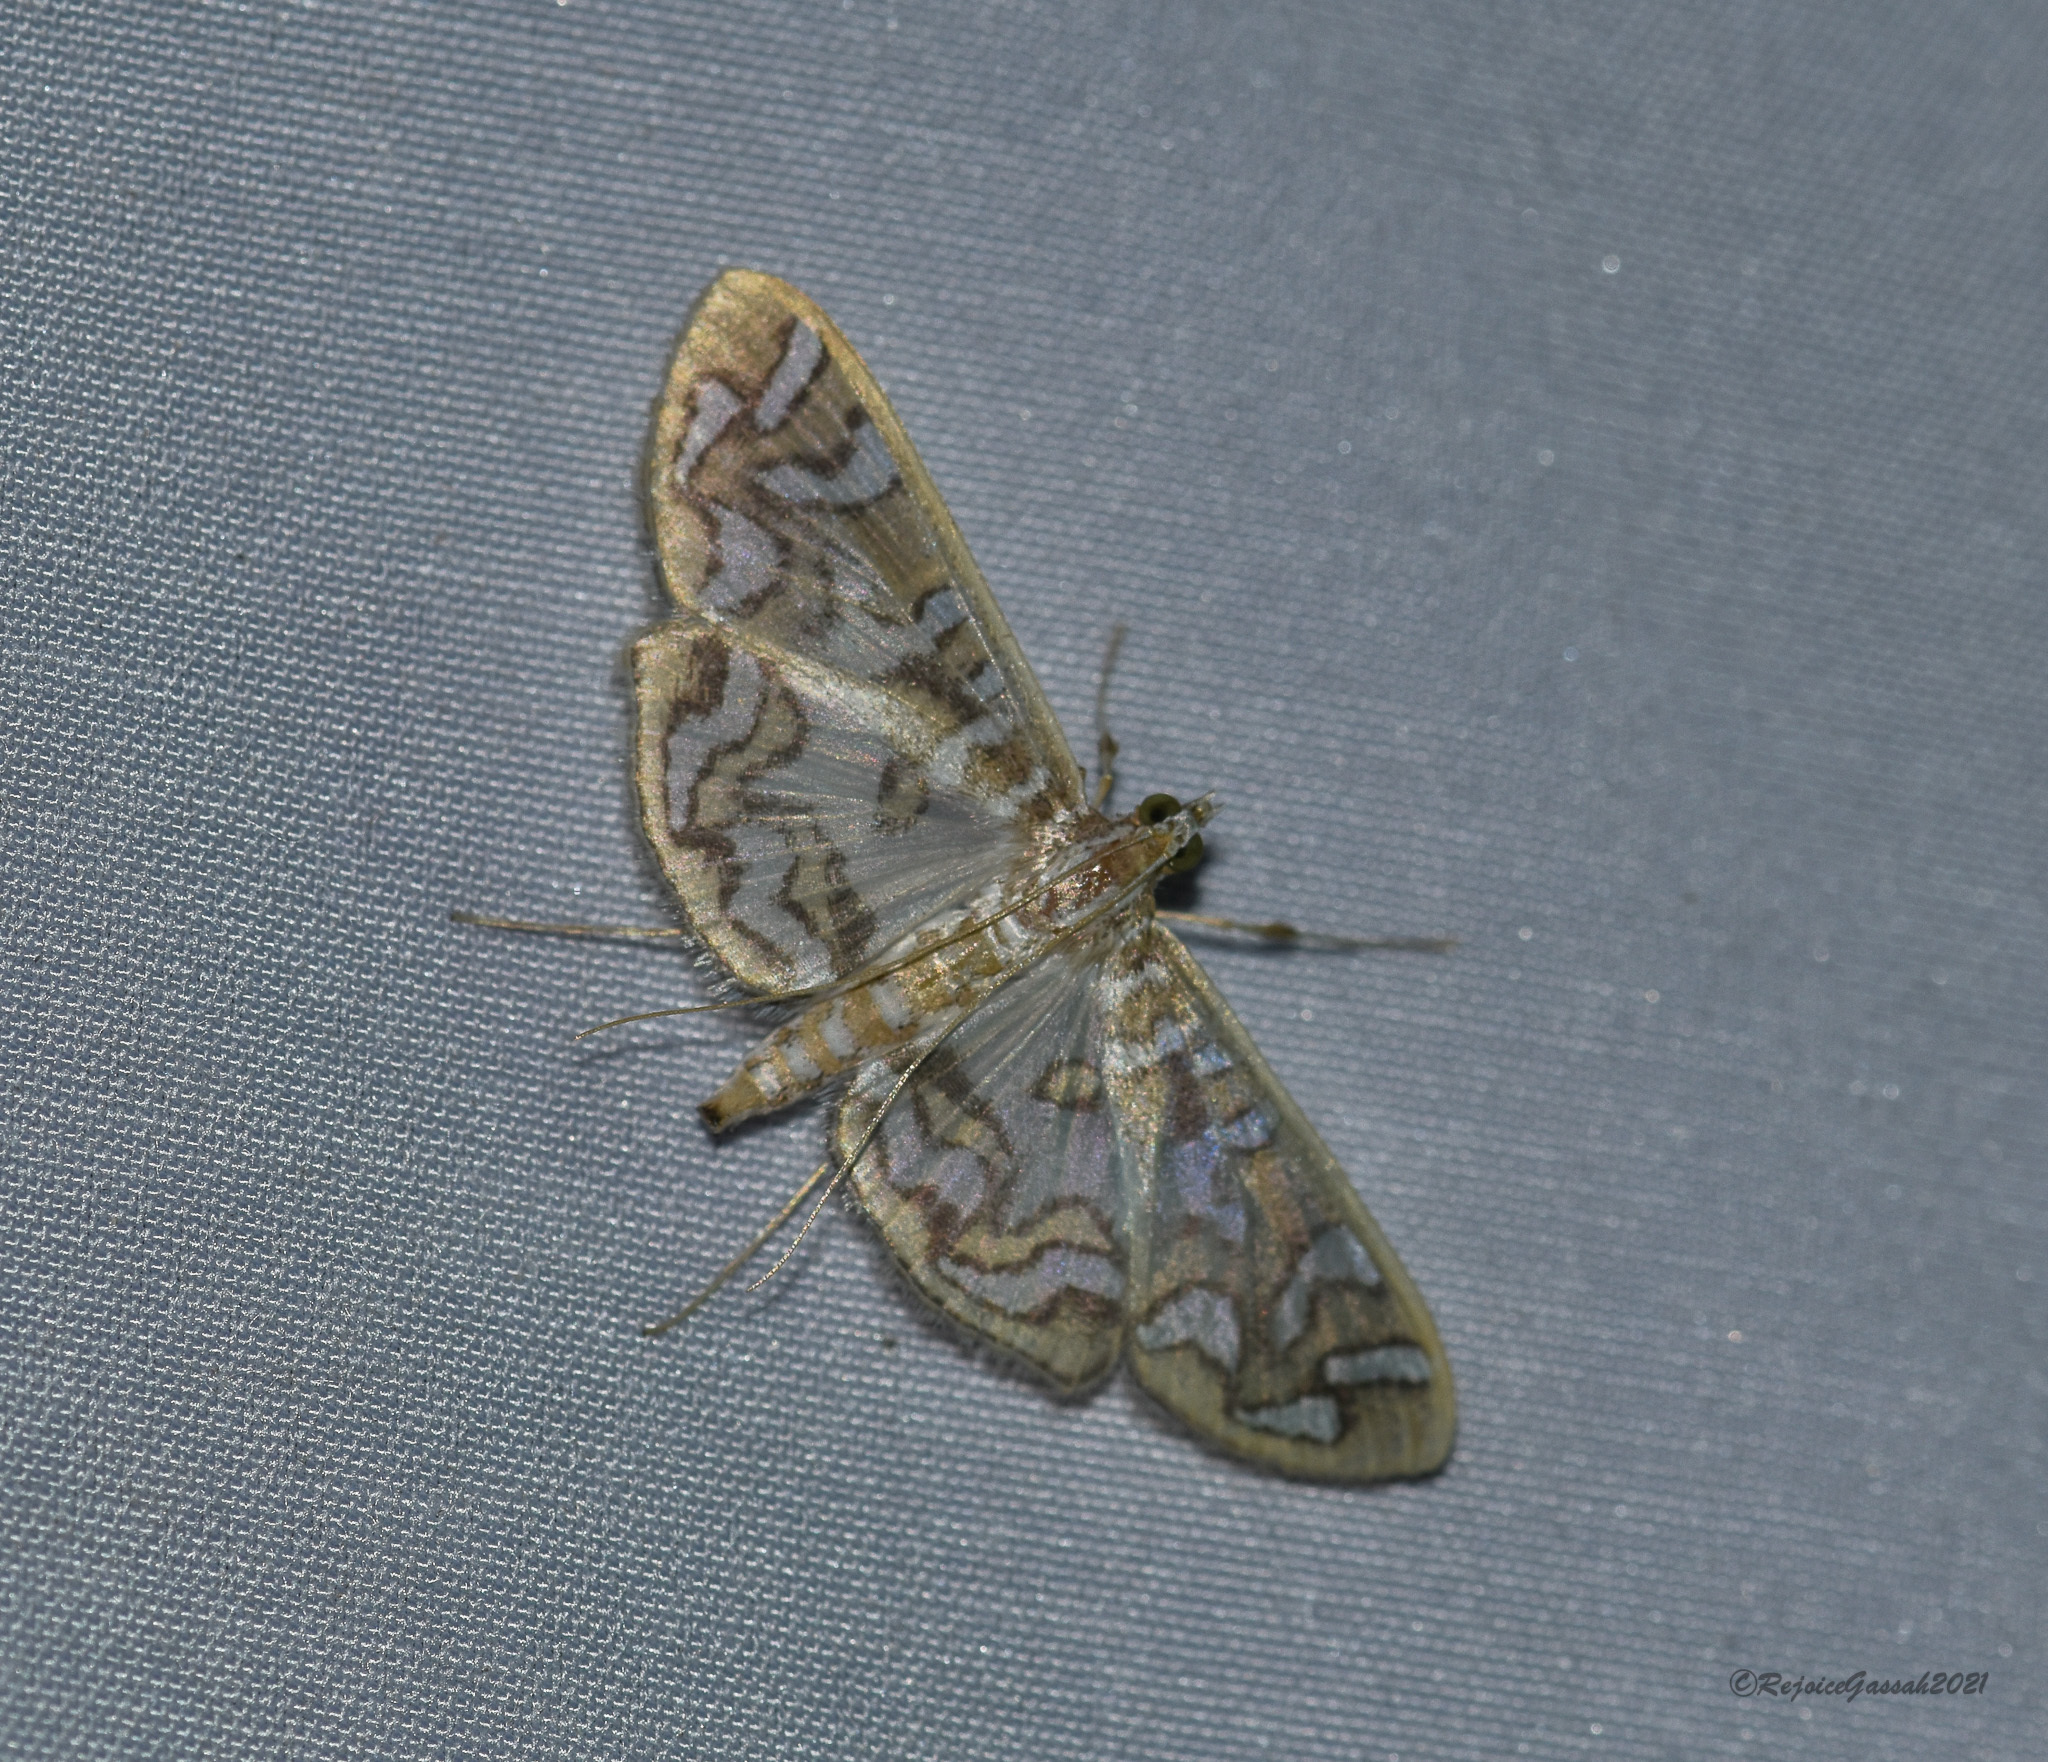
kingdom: Animalia
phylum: Arthropoda
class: Insecta
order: Lepidoptera
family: Crambidae
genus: Nausinoe
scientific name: Nausinoe perspectata
